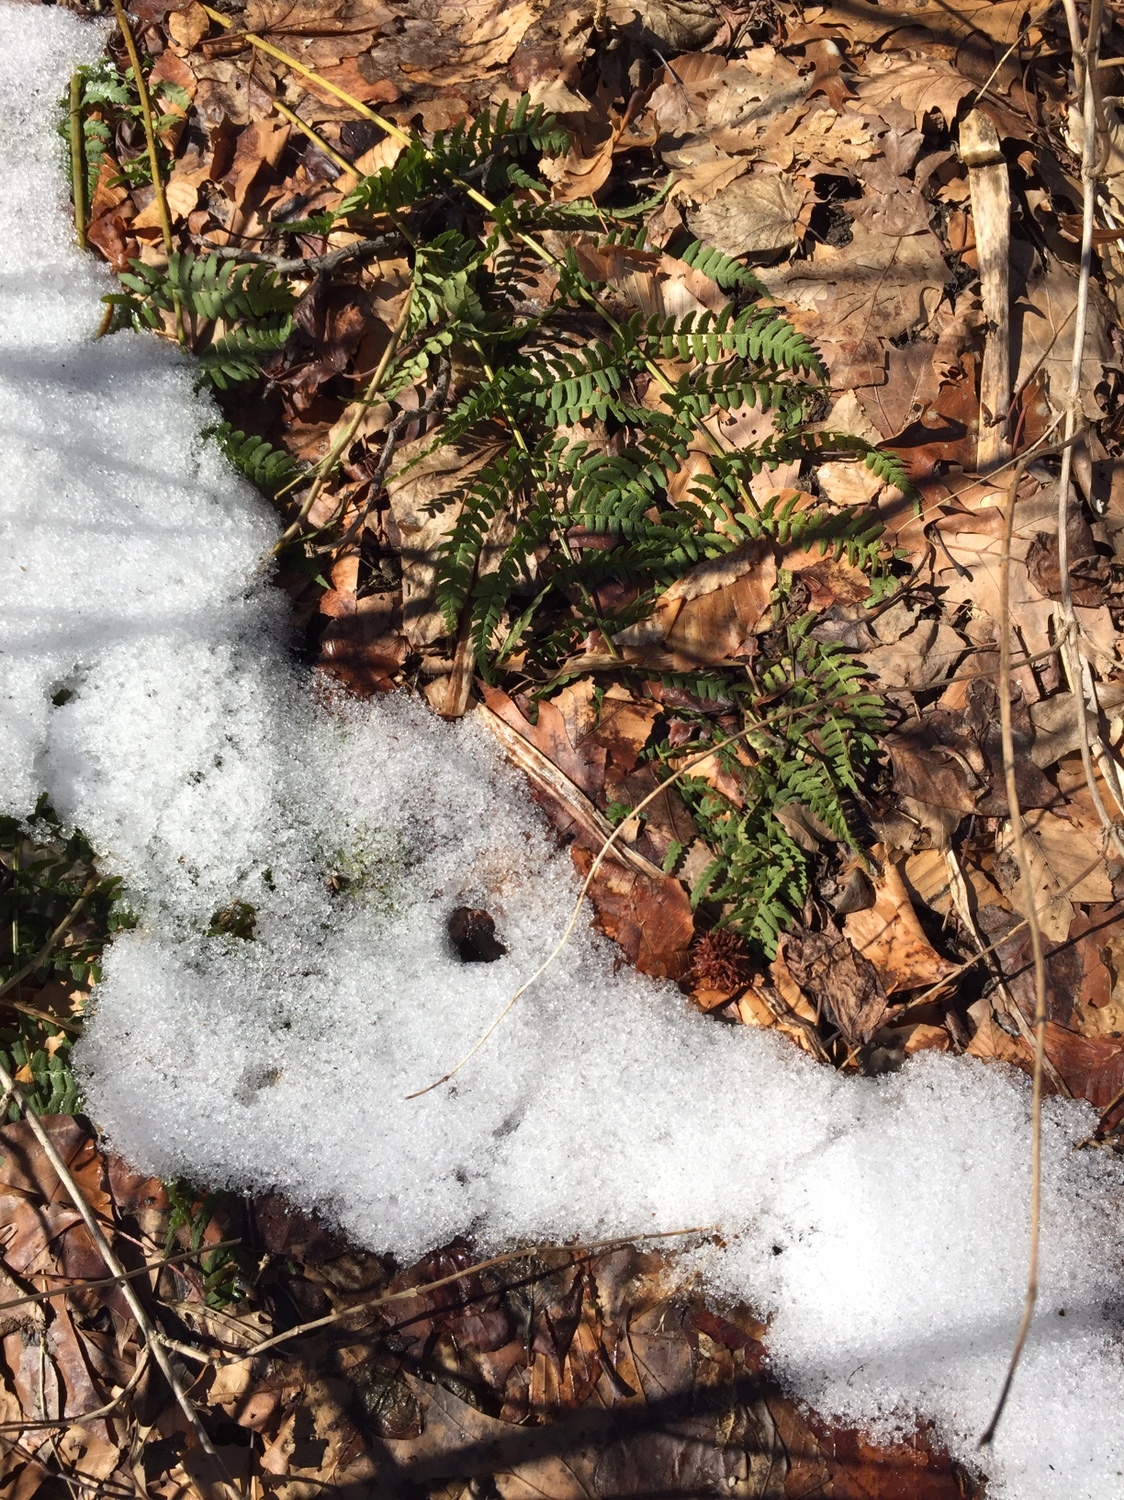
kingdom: Plantae
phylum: Tracheophyta
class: Polypodiopsida
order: Polypodiales
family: Dryopteridaceae
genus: Dryopteris
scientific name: Dryopteris marginalis
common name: Marginal wood fern
